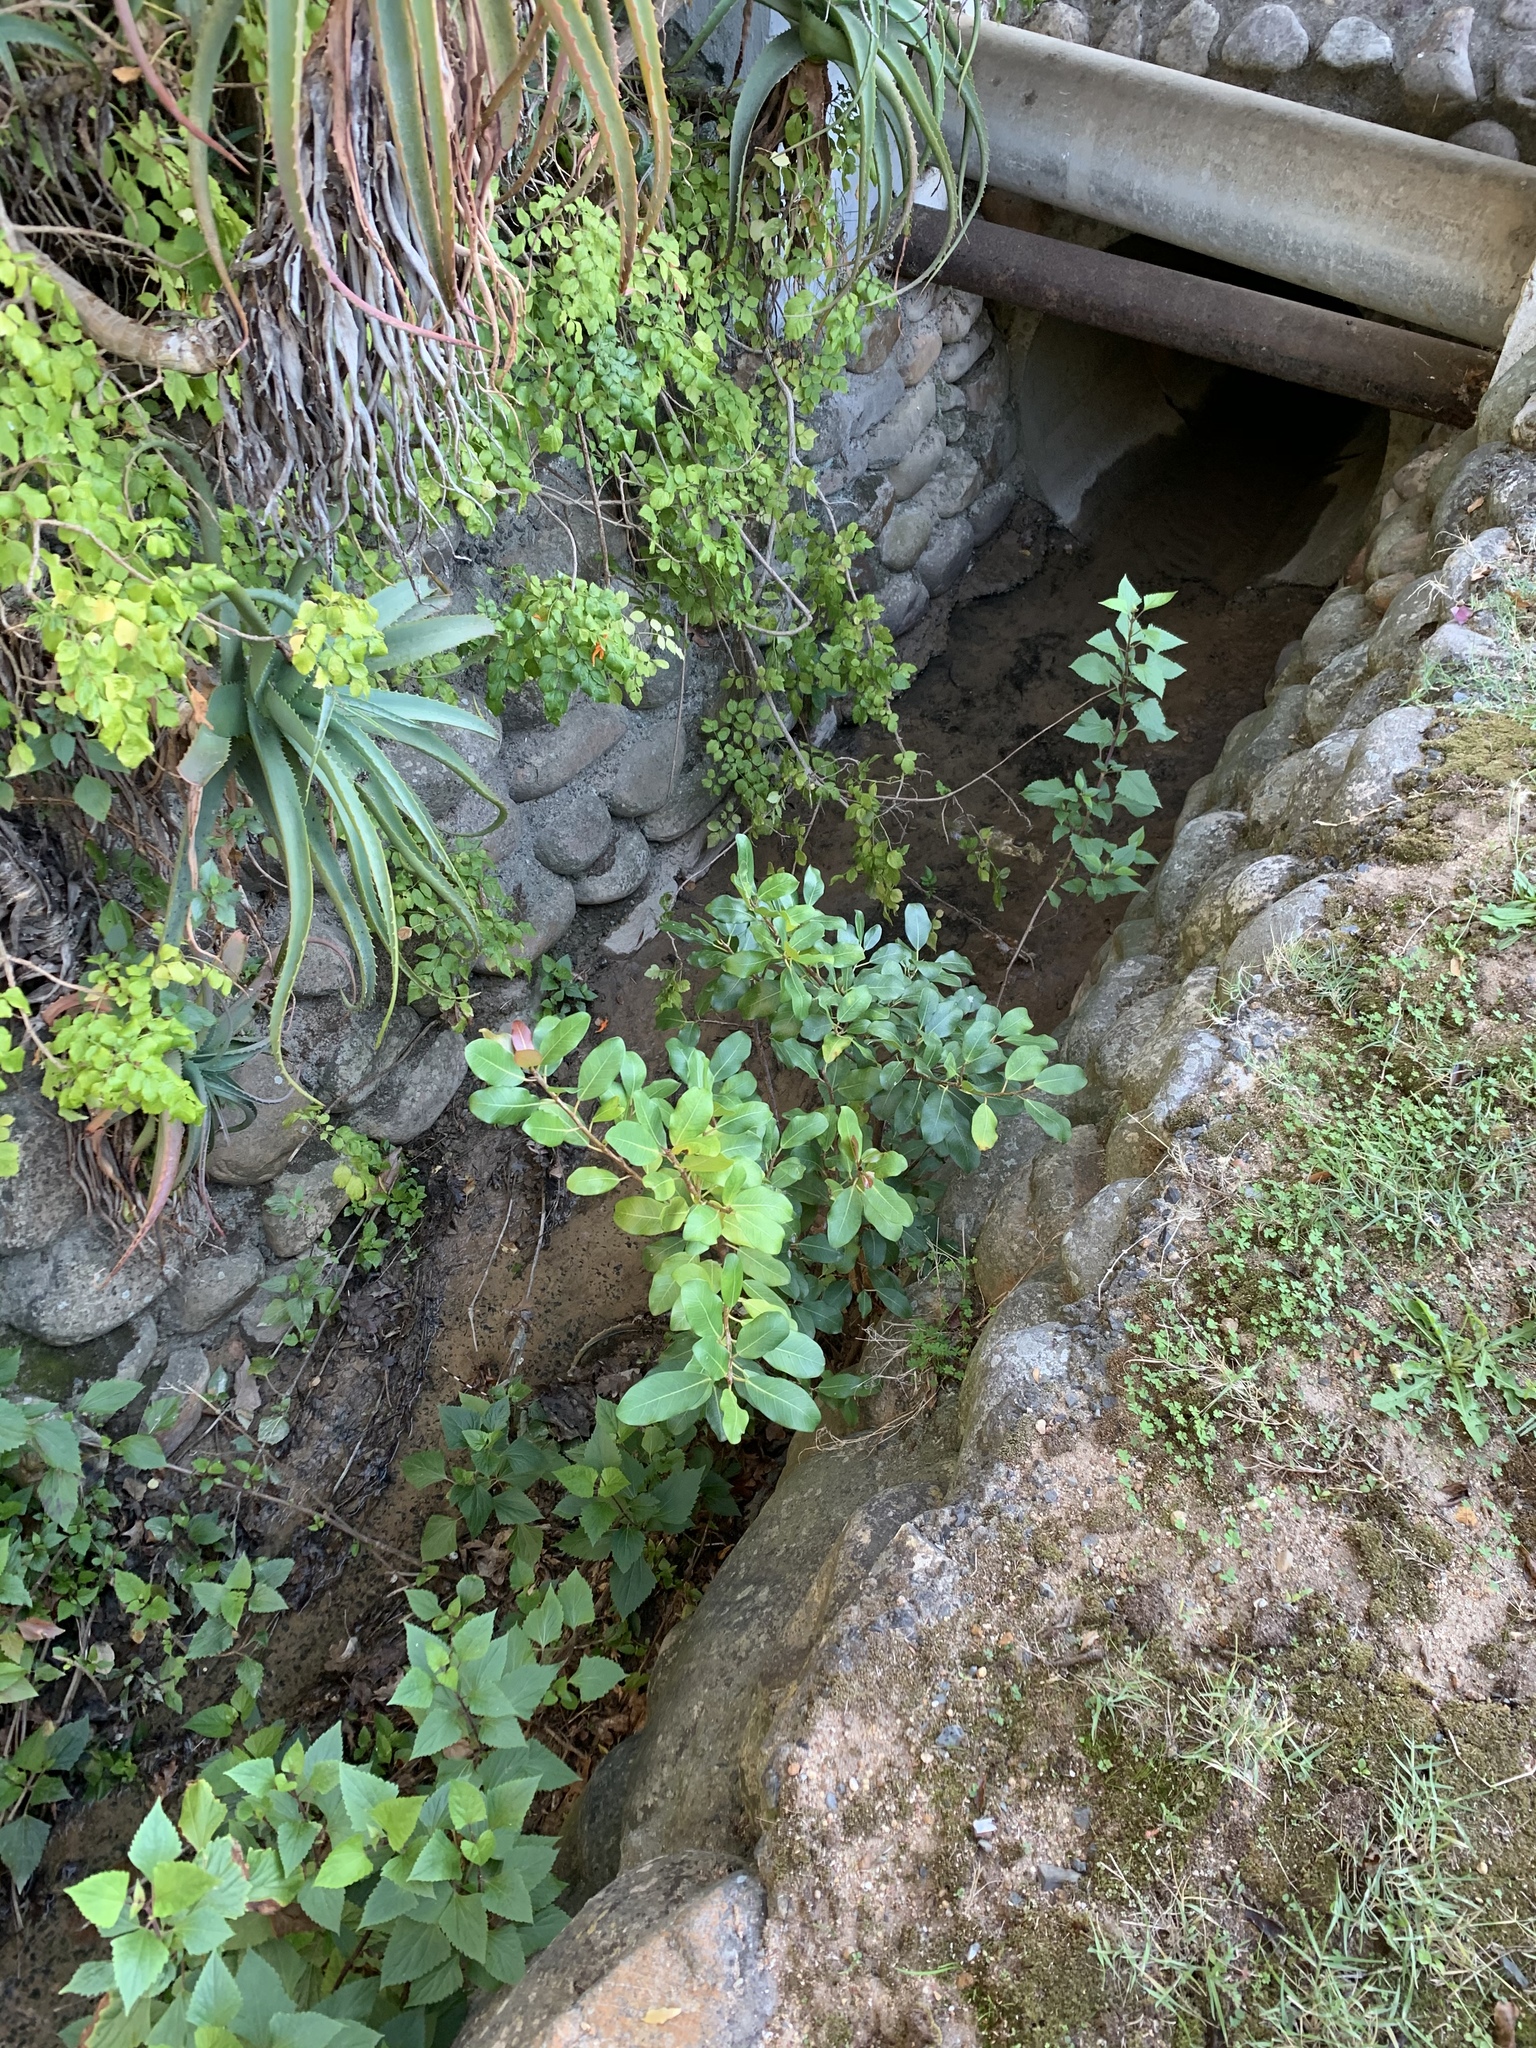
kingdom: Plantae
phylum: Tracheophyta
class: Magnoliopsida
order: Rosales
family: Moraceae
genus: Ficus
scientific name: Ficus thonningii
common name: Fig
